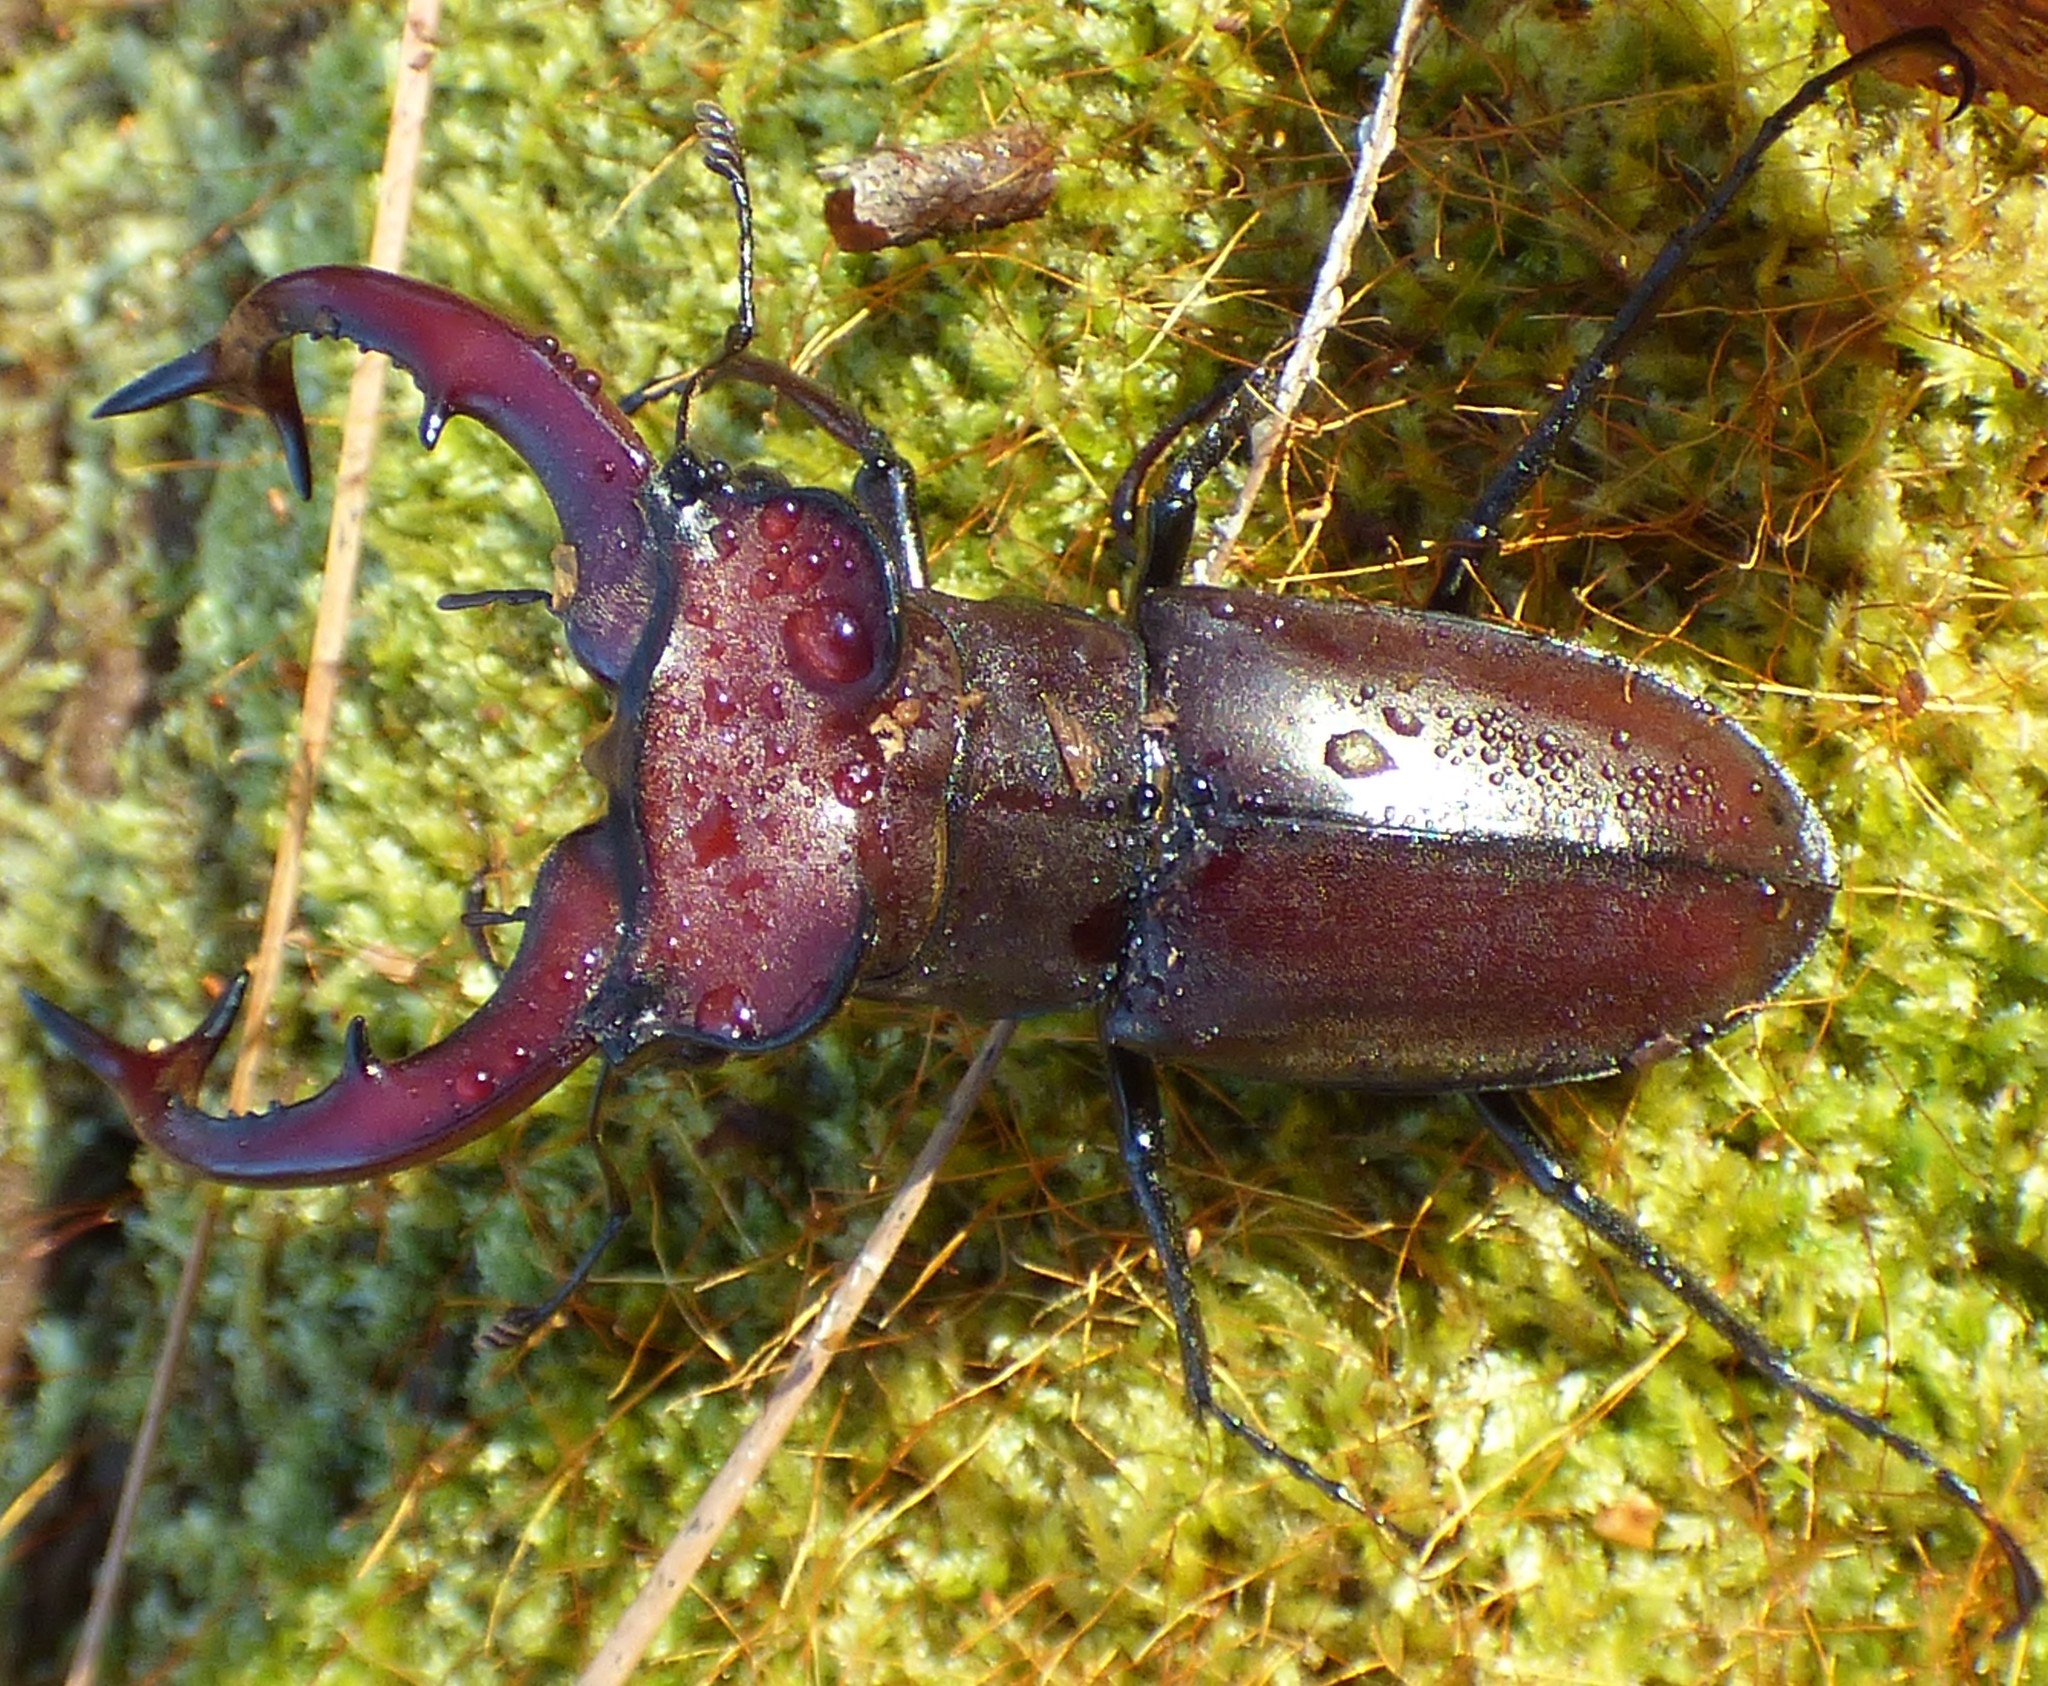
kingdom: Animalia
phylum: Arthropoda
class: Insecta
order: Coleoptera
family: Lucanidae
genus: Lucanus
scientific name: Lucanus elaphus
